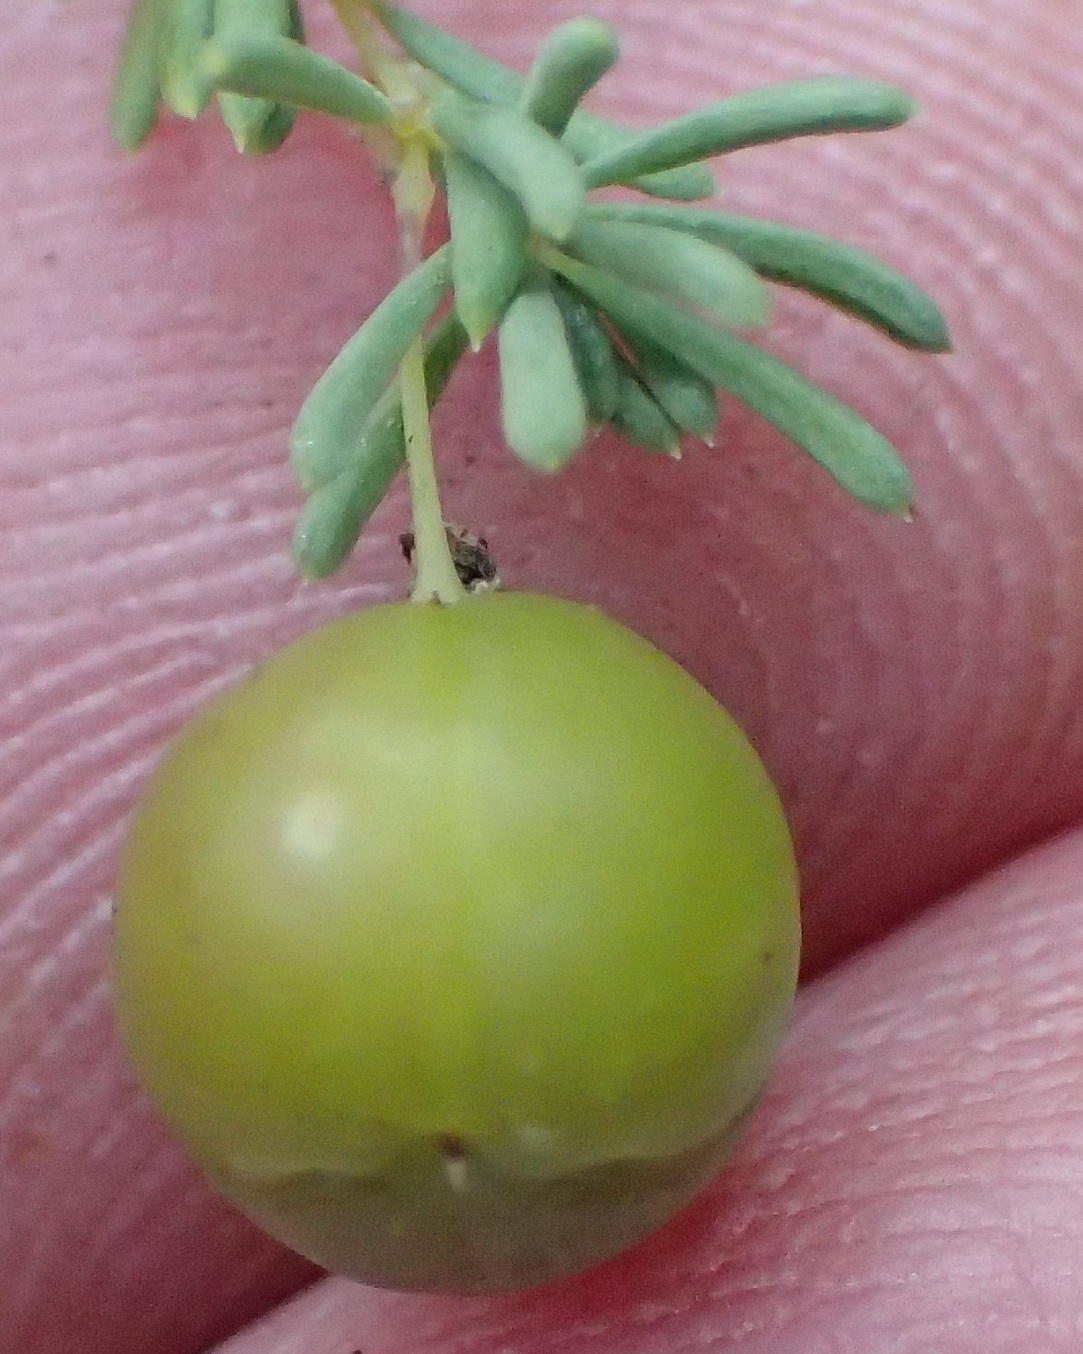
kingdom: Plantae
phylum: Tracheophyta
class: Liliopsida
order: Asparagales
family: Asparagaceae
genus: Asparagus
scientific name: Asparagus rubicundus
